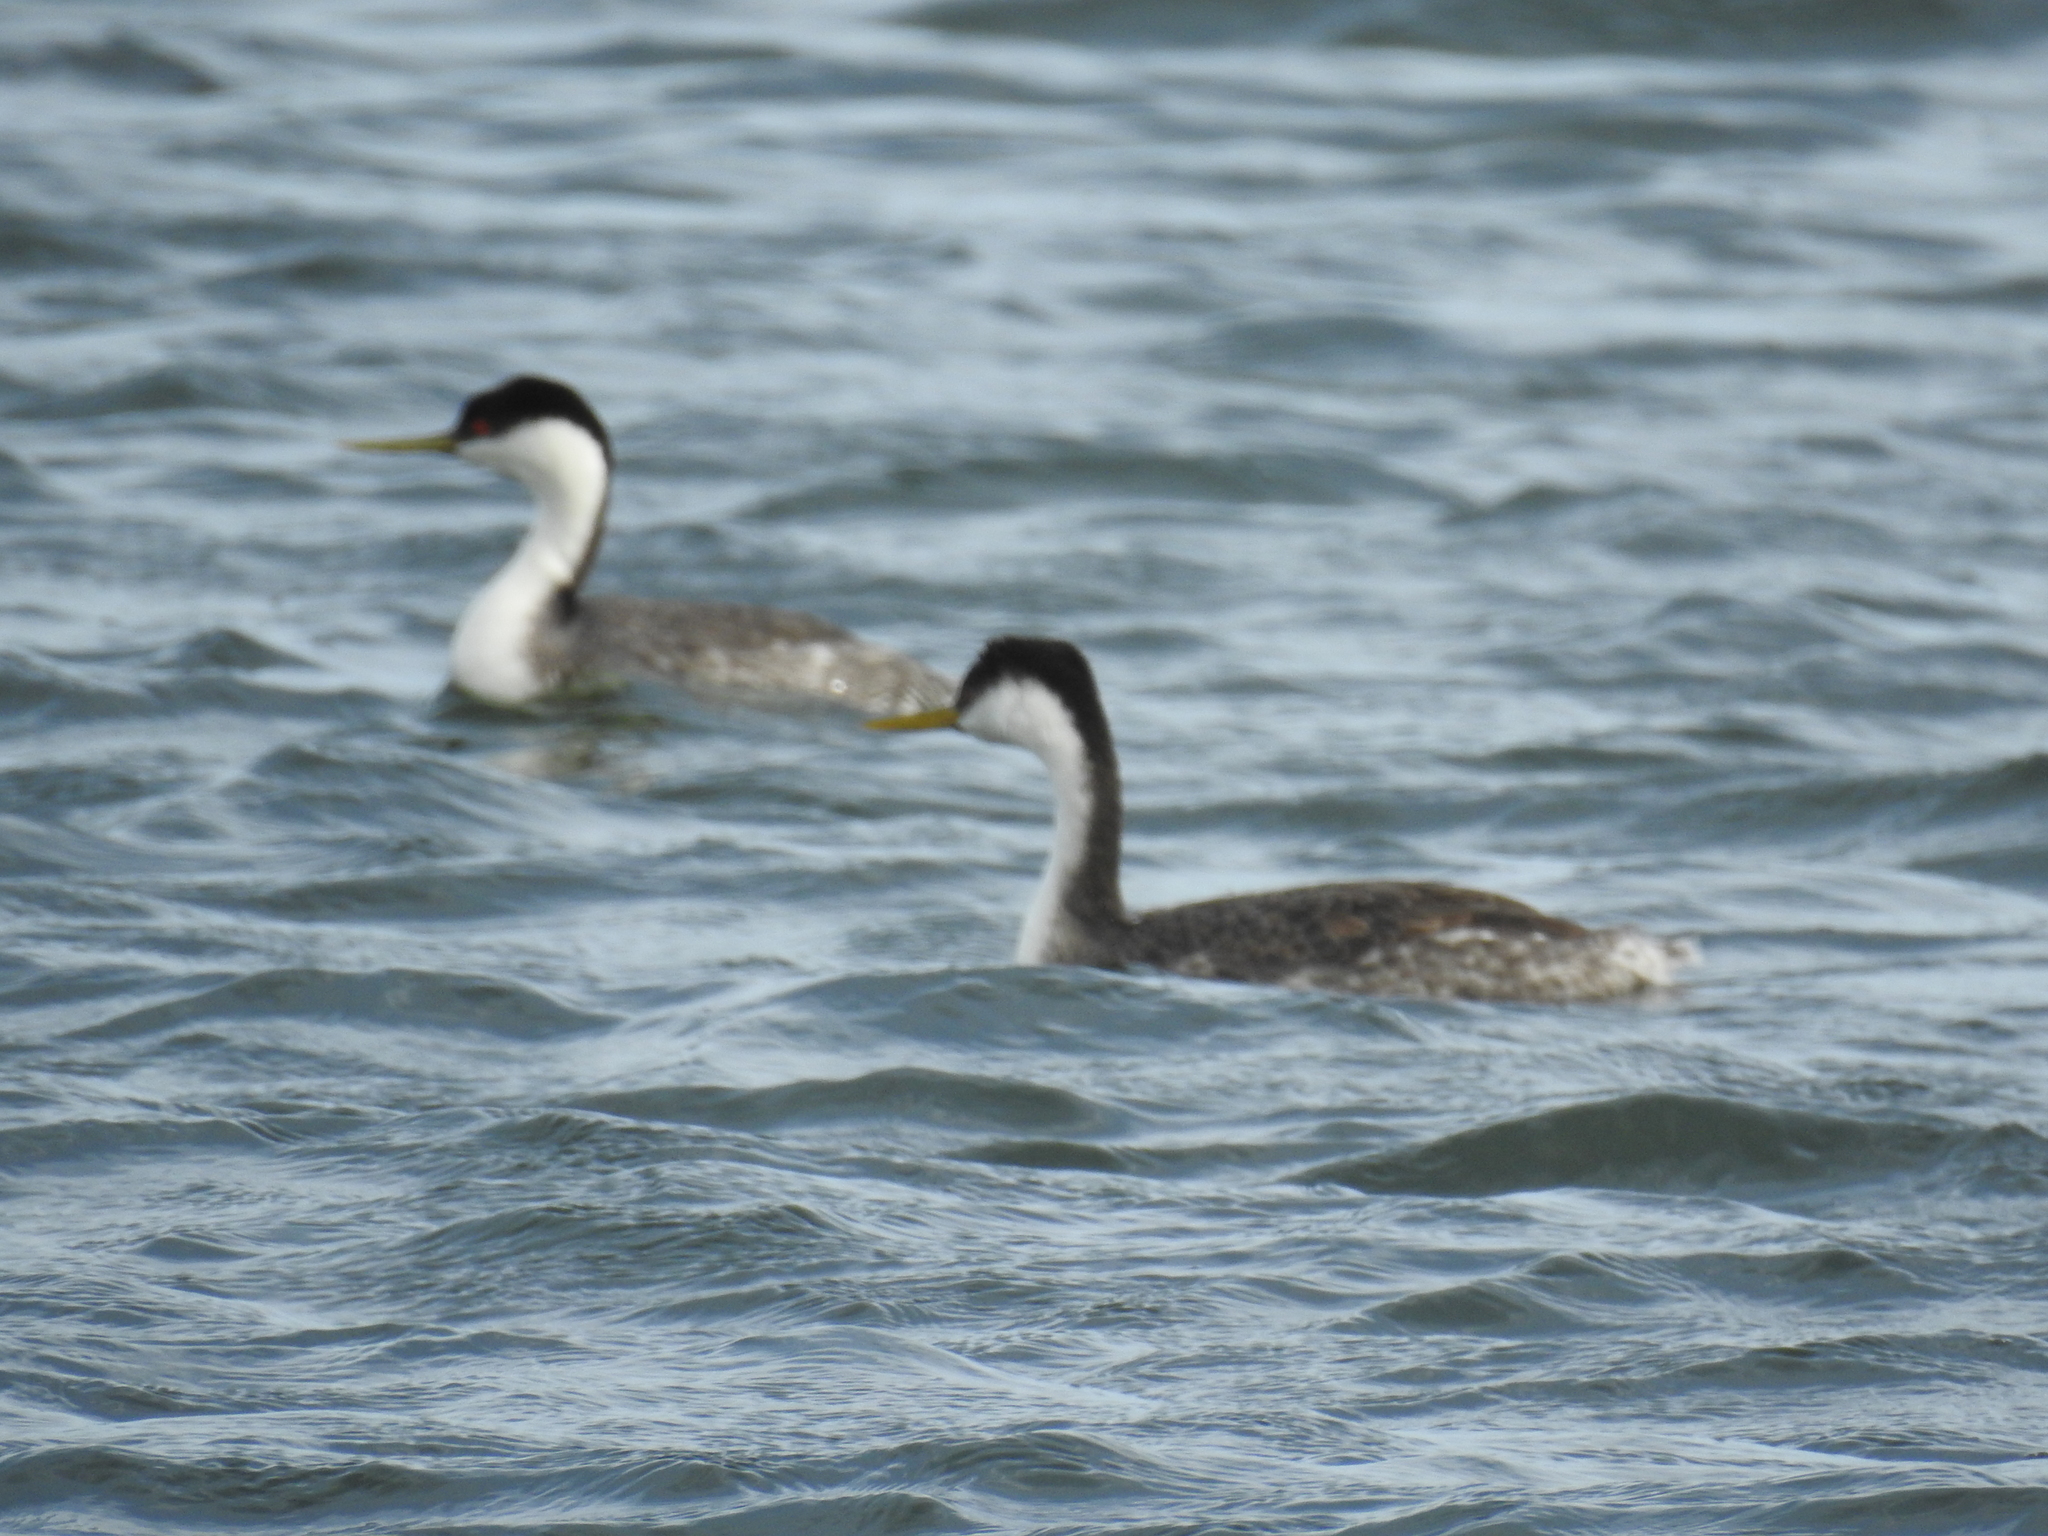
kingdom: Animalia
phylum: Chordata
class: Aves
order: Podicipediformes
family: Podicipedidae
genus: Aechmophorus
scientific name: Aechmophorus occidentalis
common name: Western grebe
